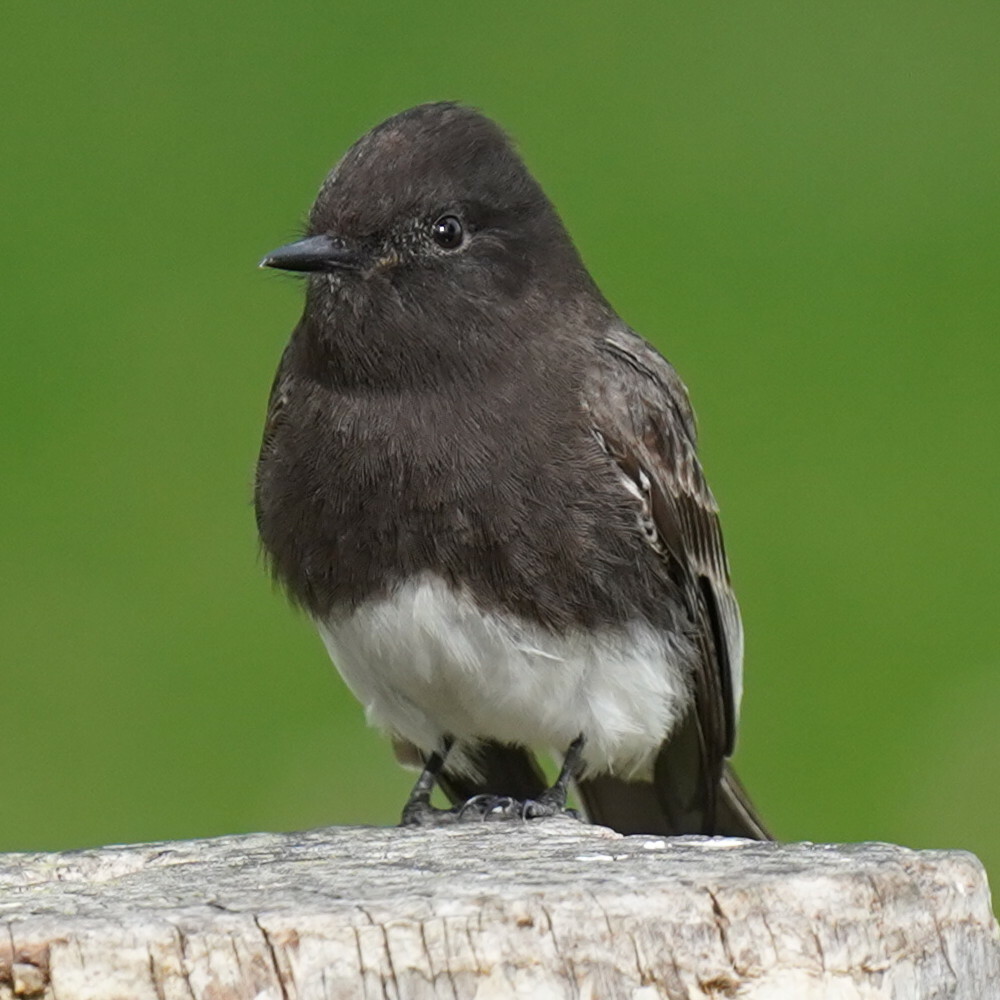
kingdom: Animalia
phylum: Chordata
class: Aves
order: Passeriformes
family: Tyrannidae
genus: Sayornis
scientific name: Sayornis nigricans
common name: Black phoebe
